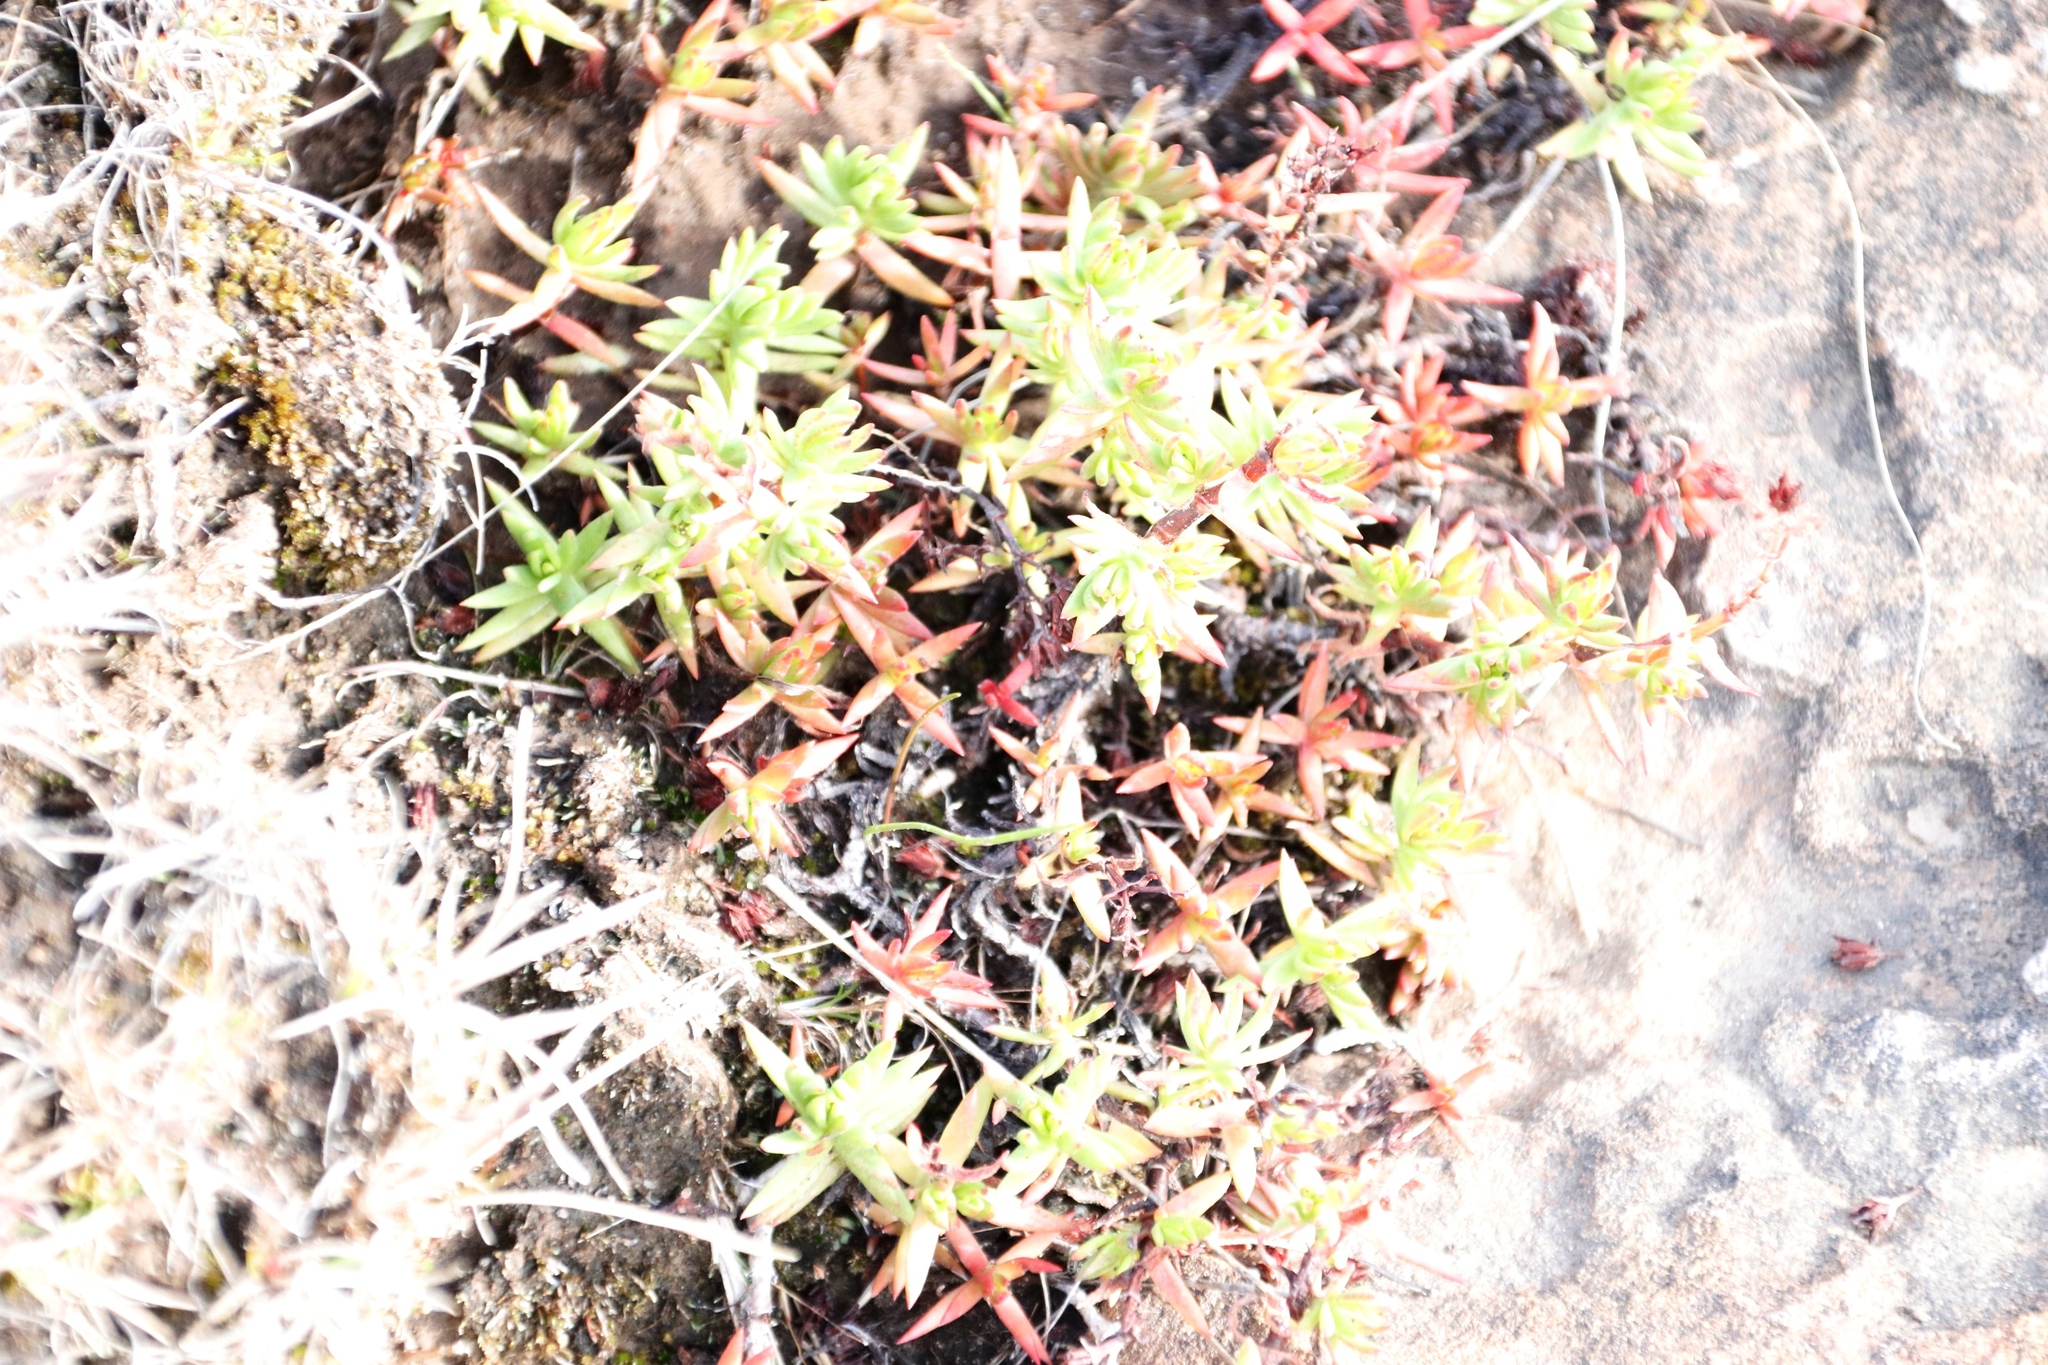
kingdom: Plantae
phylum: Tracheophyta
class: Magnoliopsida
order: Saxifragales
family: Crassulaceae
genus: Crassula
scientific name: Crassula dependens
